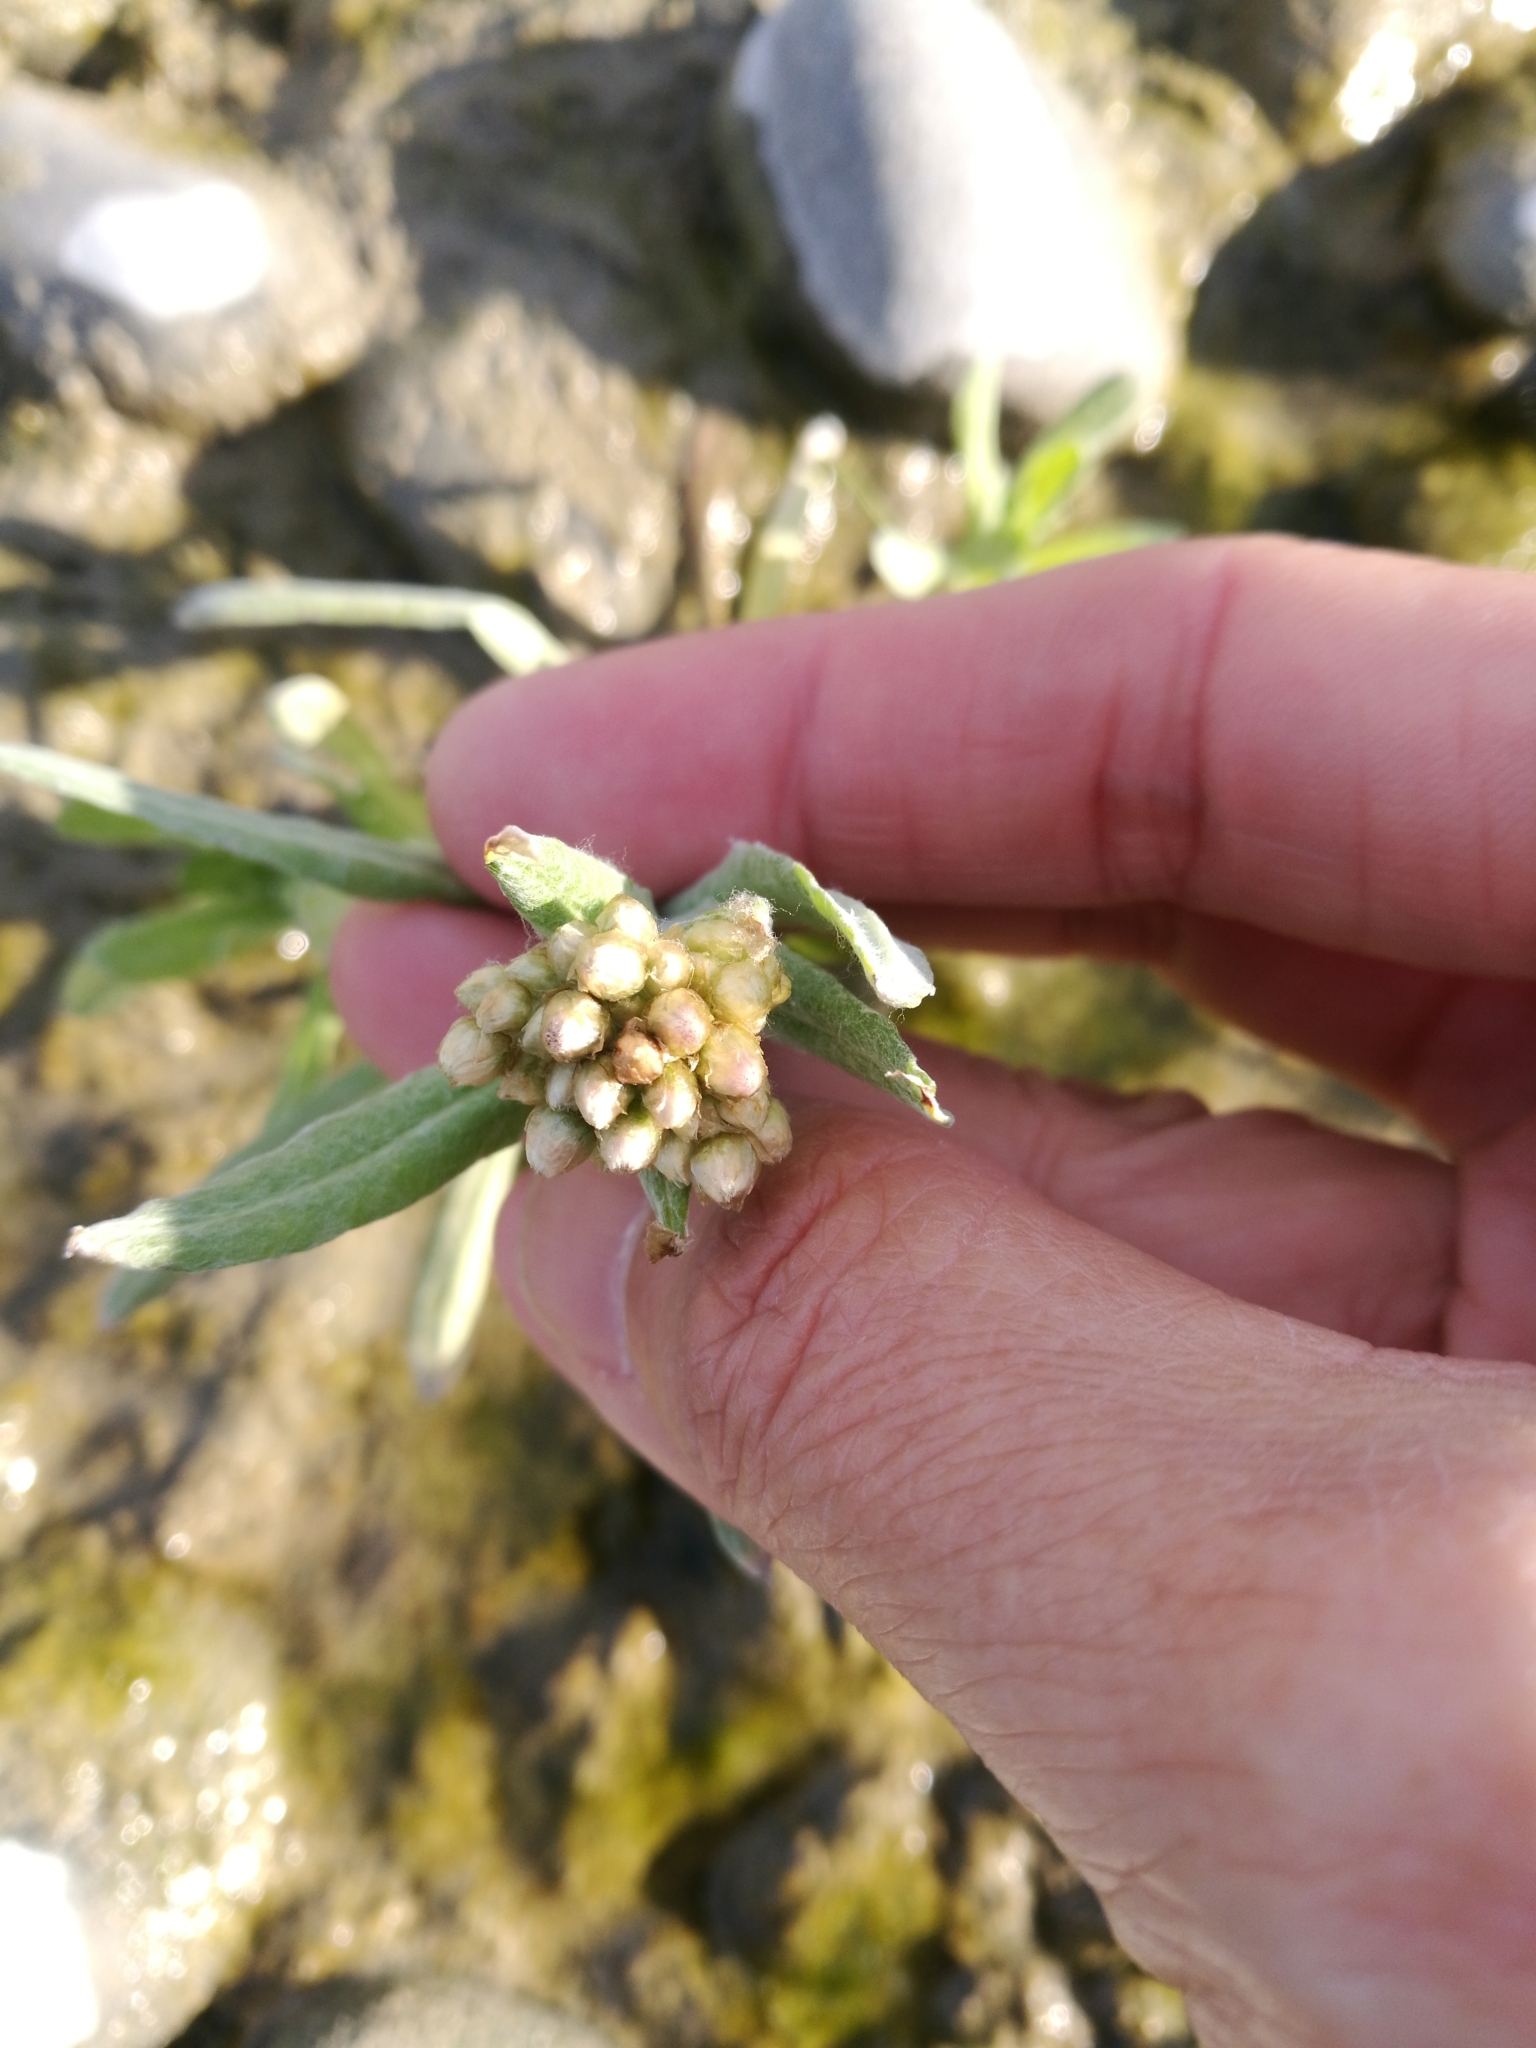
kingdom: Plantae
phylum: Tracheophyta
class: Magnoliopsida
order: Asterales
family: Asteraceae
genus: Helichrysum
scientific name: Helichrysum luteoalbum
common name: Daisy
